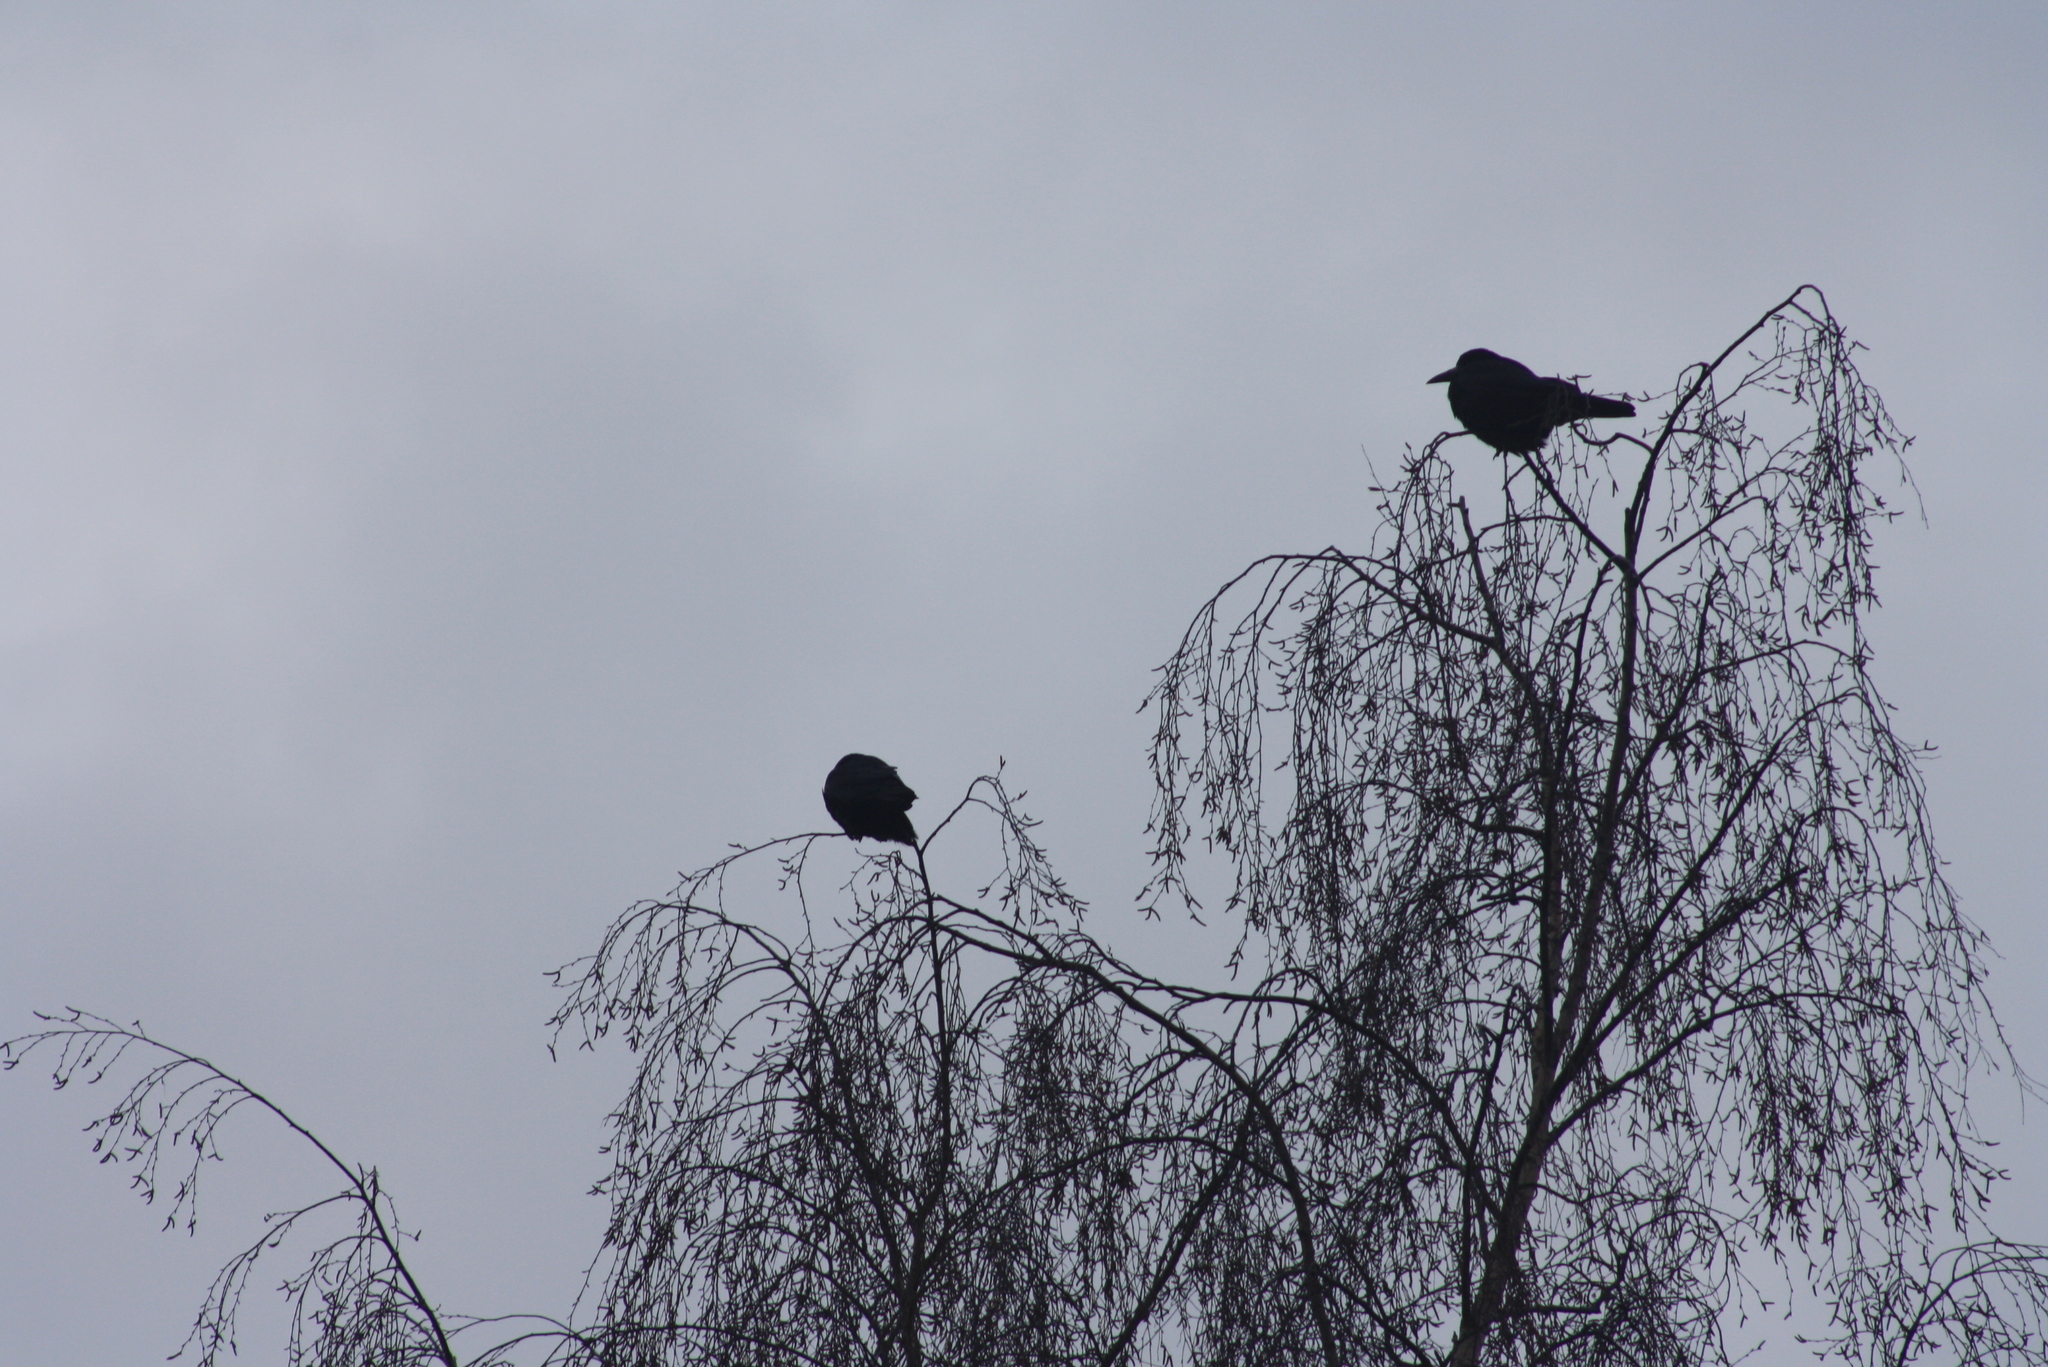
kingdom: Animalia
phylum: Chordata
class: Aves
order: Passeriformes
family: Corvidae
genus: Corvus
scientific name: Corvus frugilegus
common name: Rook
